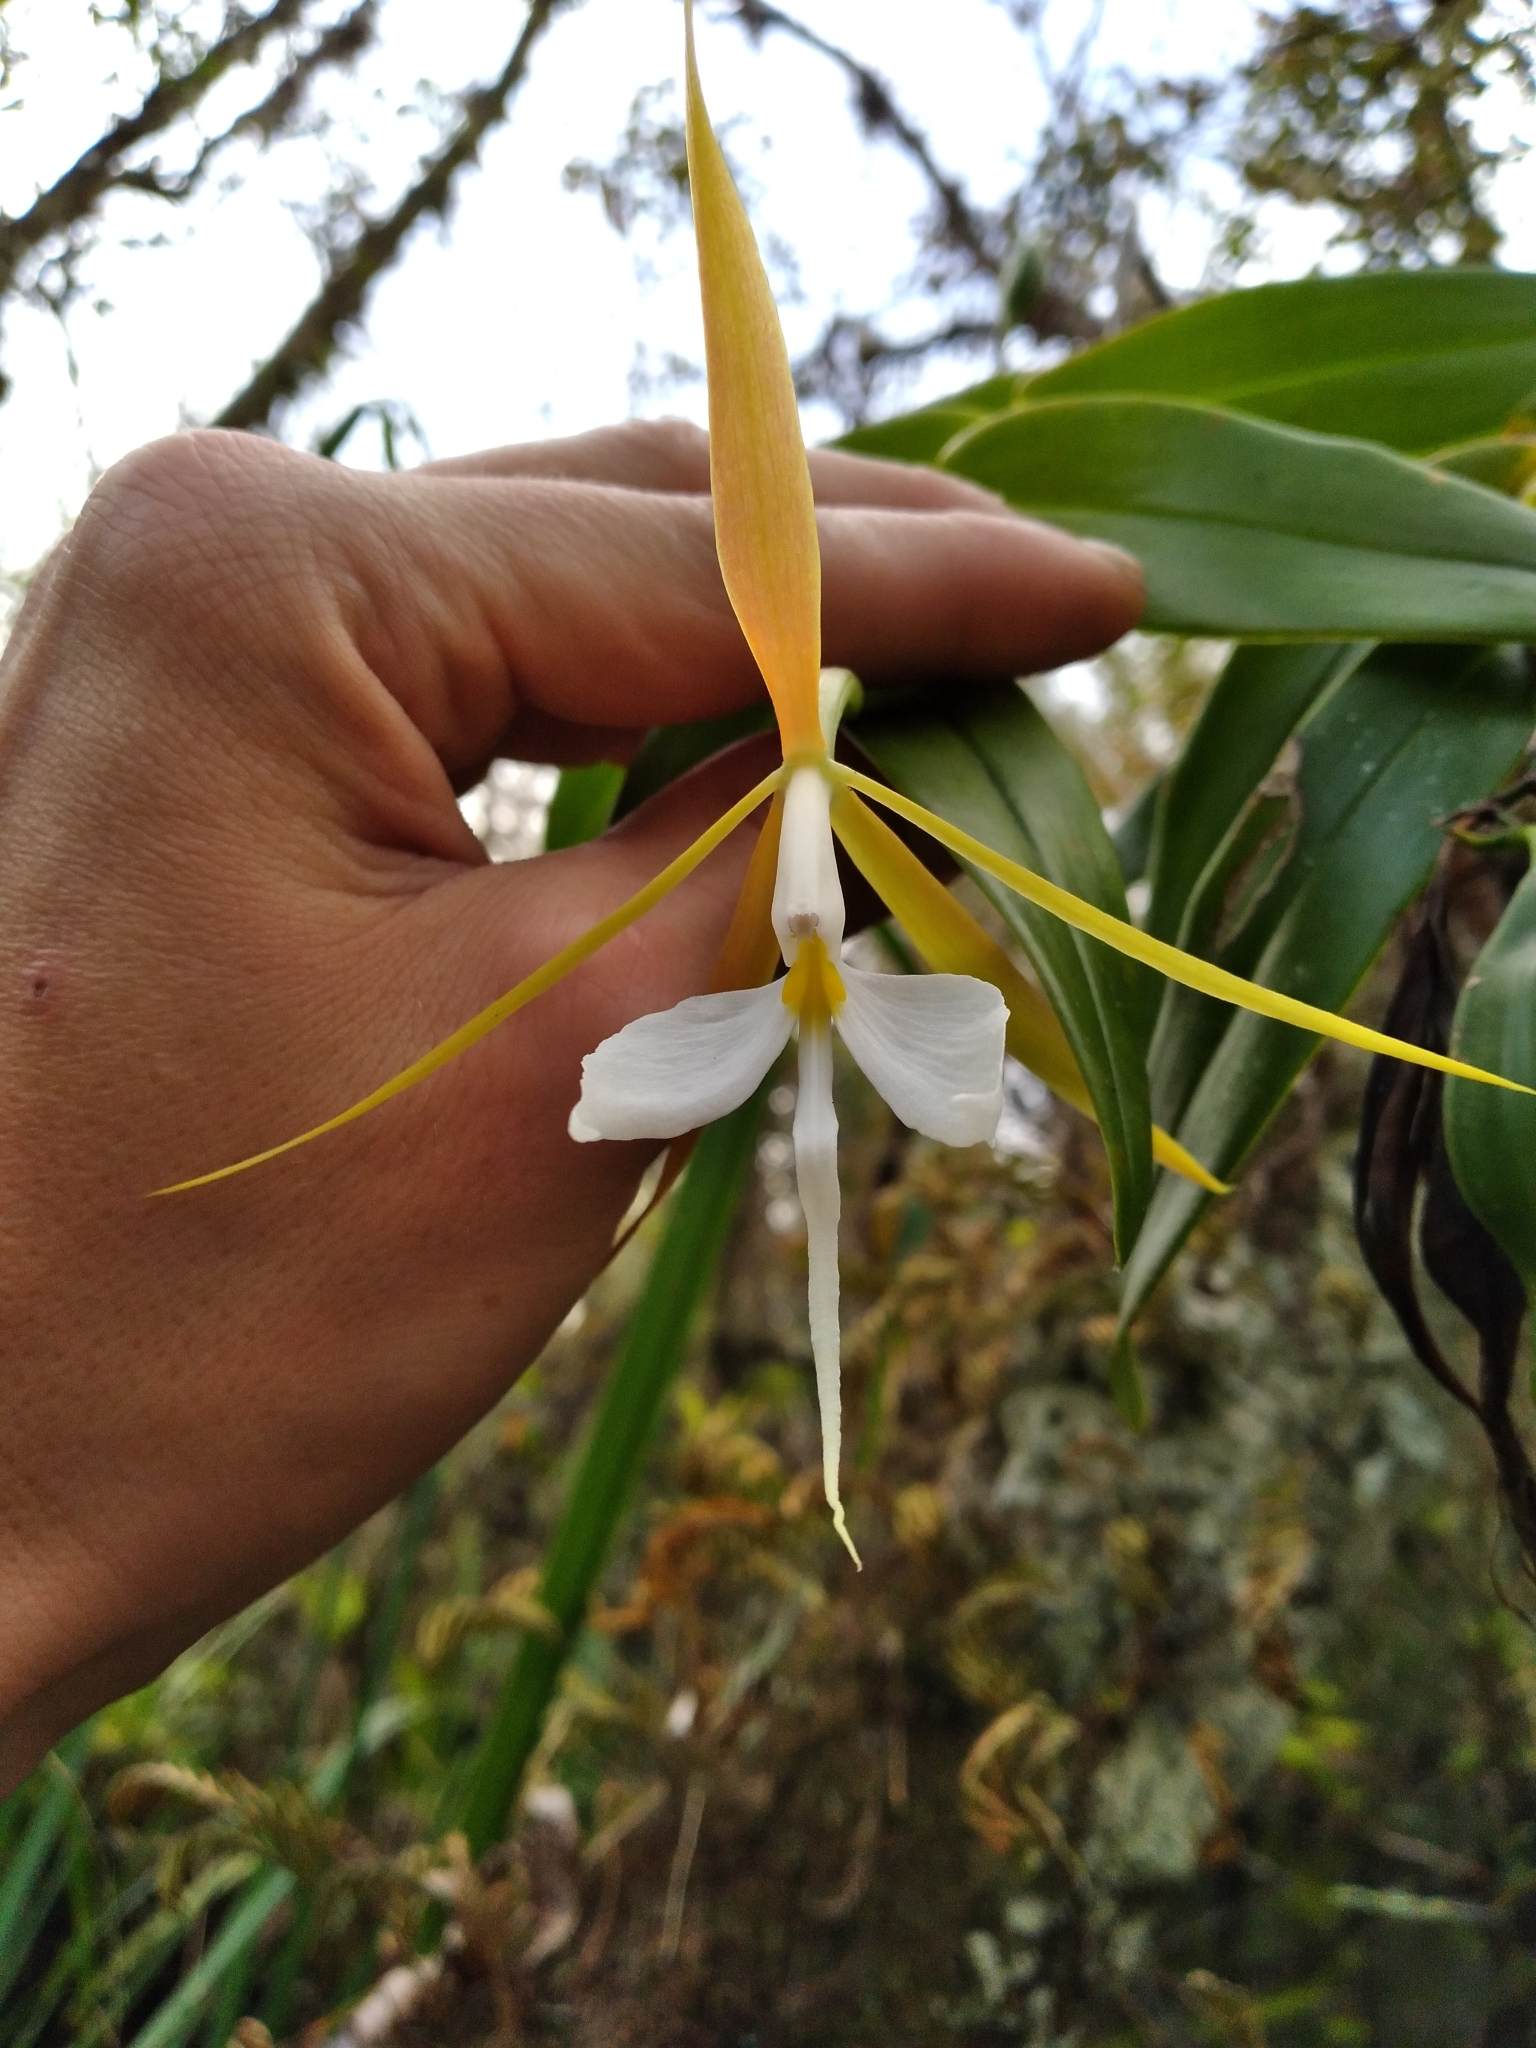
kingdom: Plantae
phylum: Tracheophyta
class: Liliopsida
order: Asparagales
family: Orchidaceae
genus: Epidendrum
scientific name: Epidendrum nocturnum
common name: Night scented orchid
